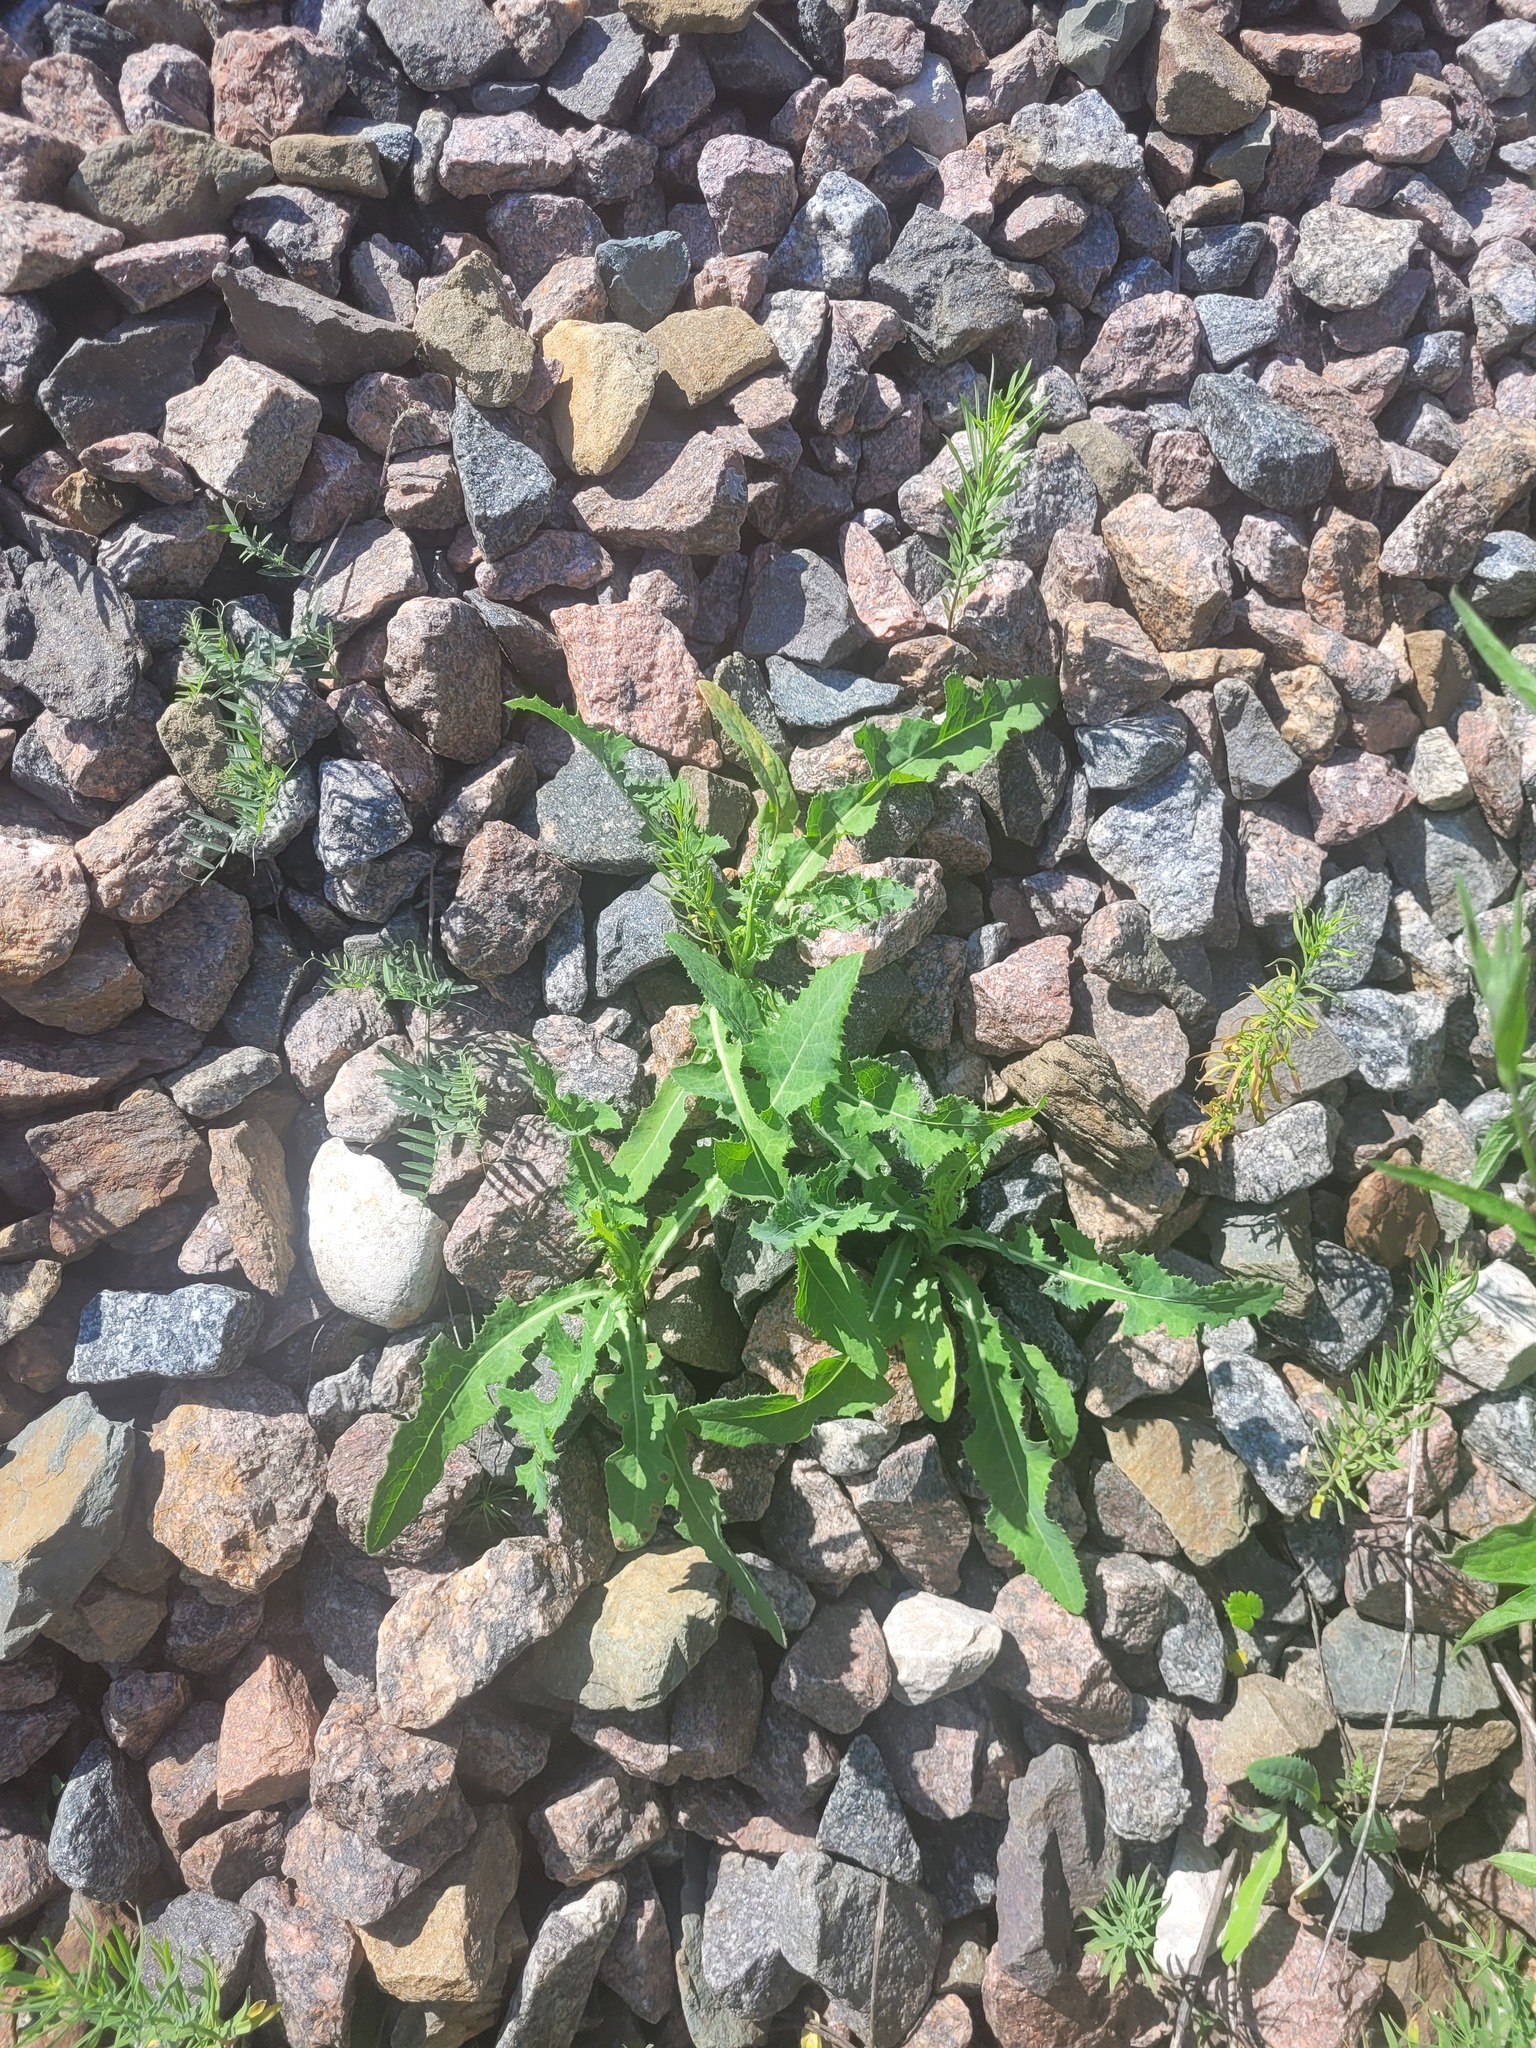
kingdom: Plantae
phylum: Tracheophyta
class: Magnoliopsida
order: Asterales
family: Asteraceae
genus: Sonchus
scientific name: Sonchus arvensis
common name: Perennial sow-thistle
